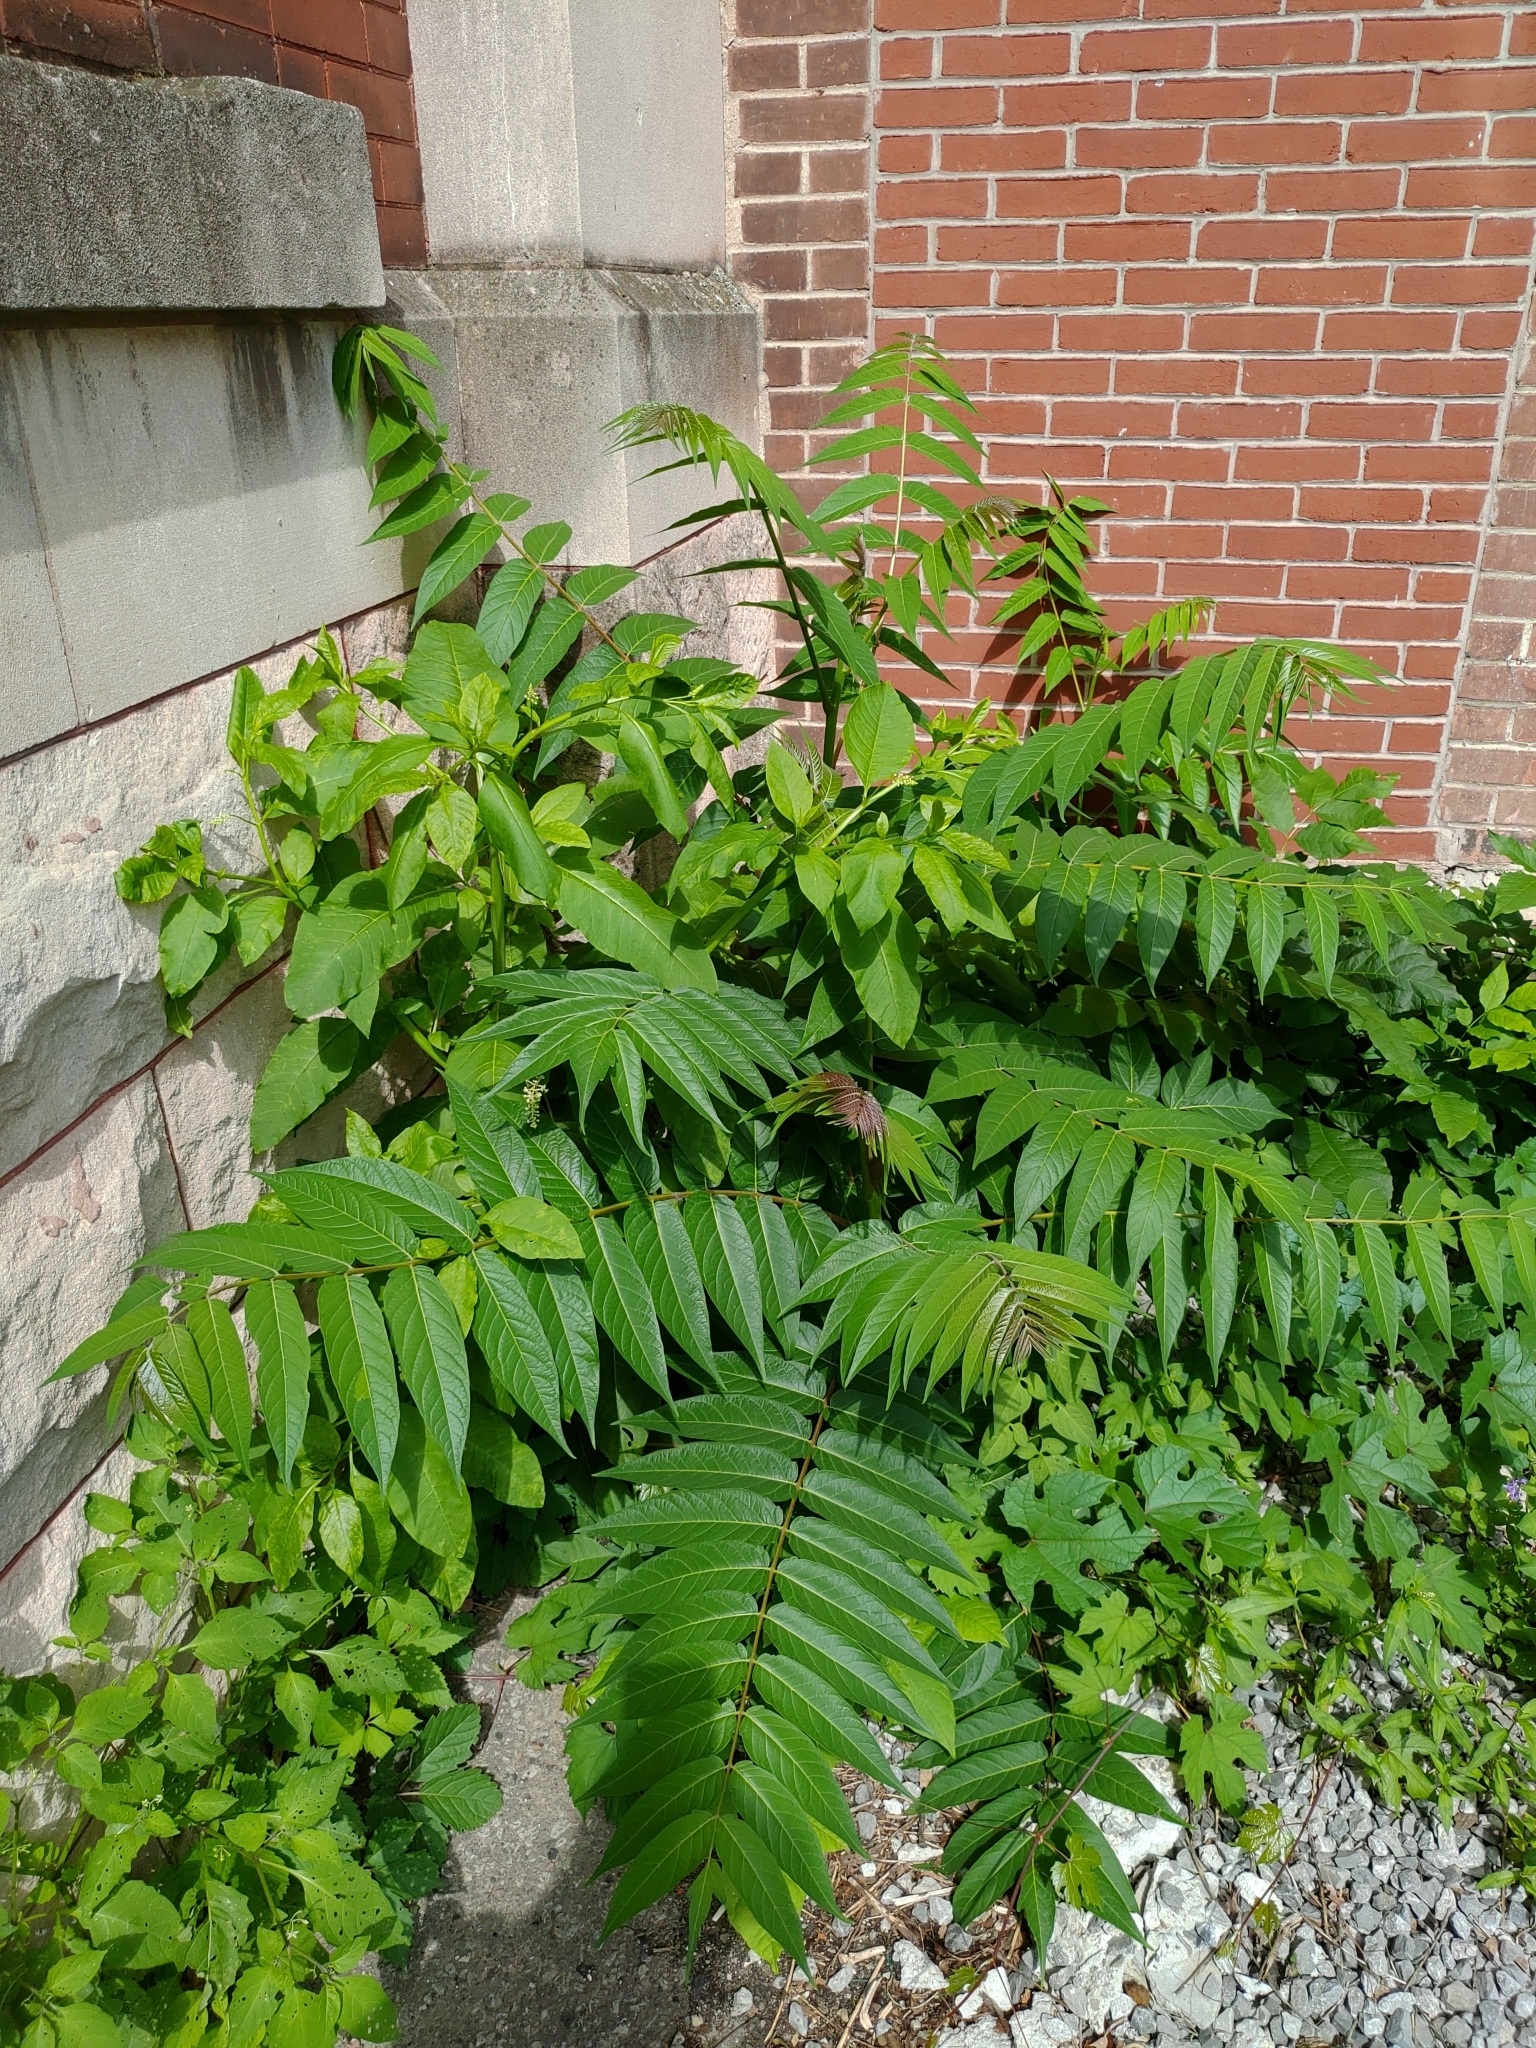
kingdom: Plantae
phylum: Tracheophyta
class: Magnoliopsida
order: Sapindales
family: Simaroubaceae
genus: Ailanthus
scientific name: Ailanthus altissima
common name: Tree-of-heaven
